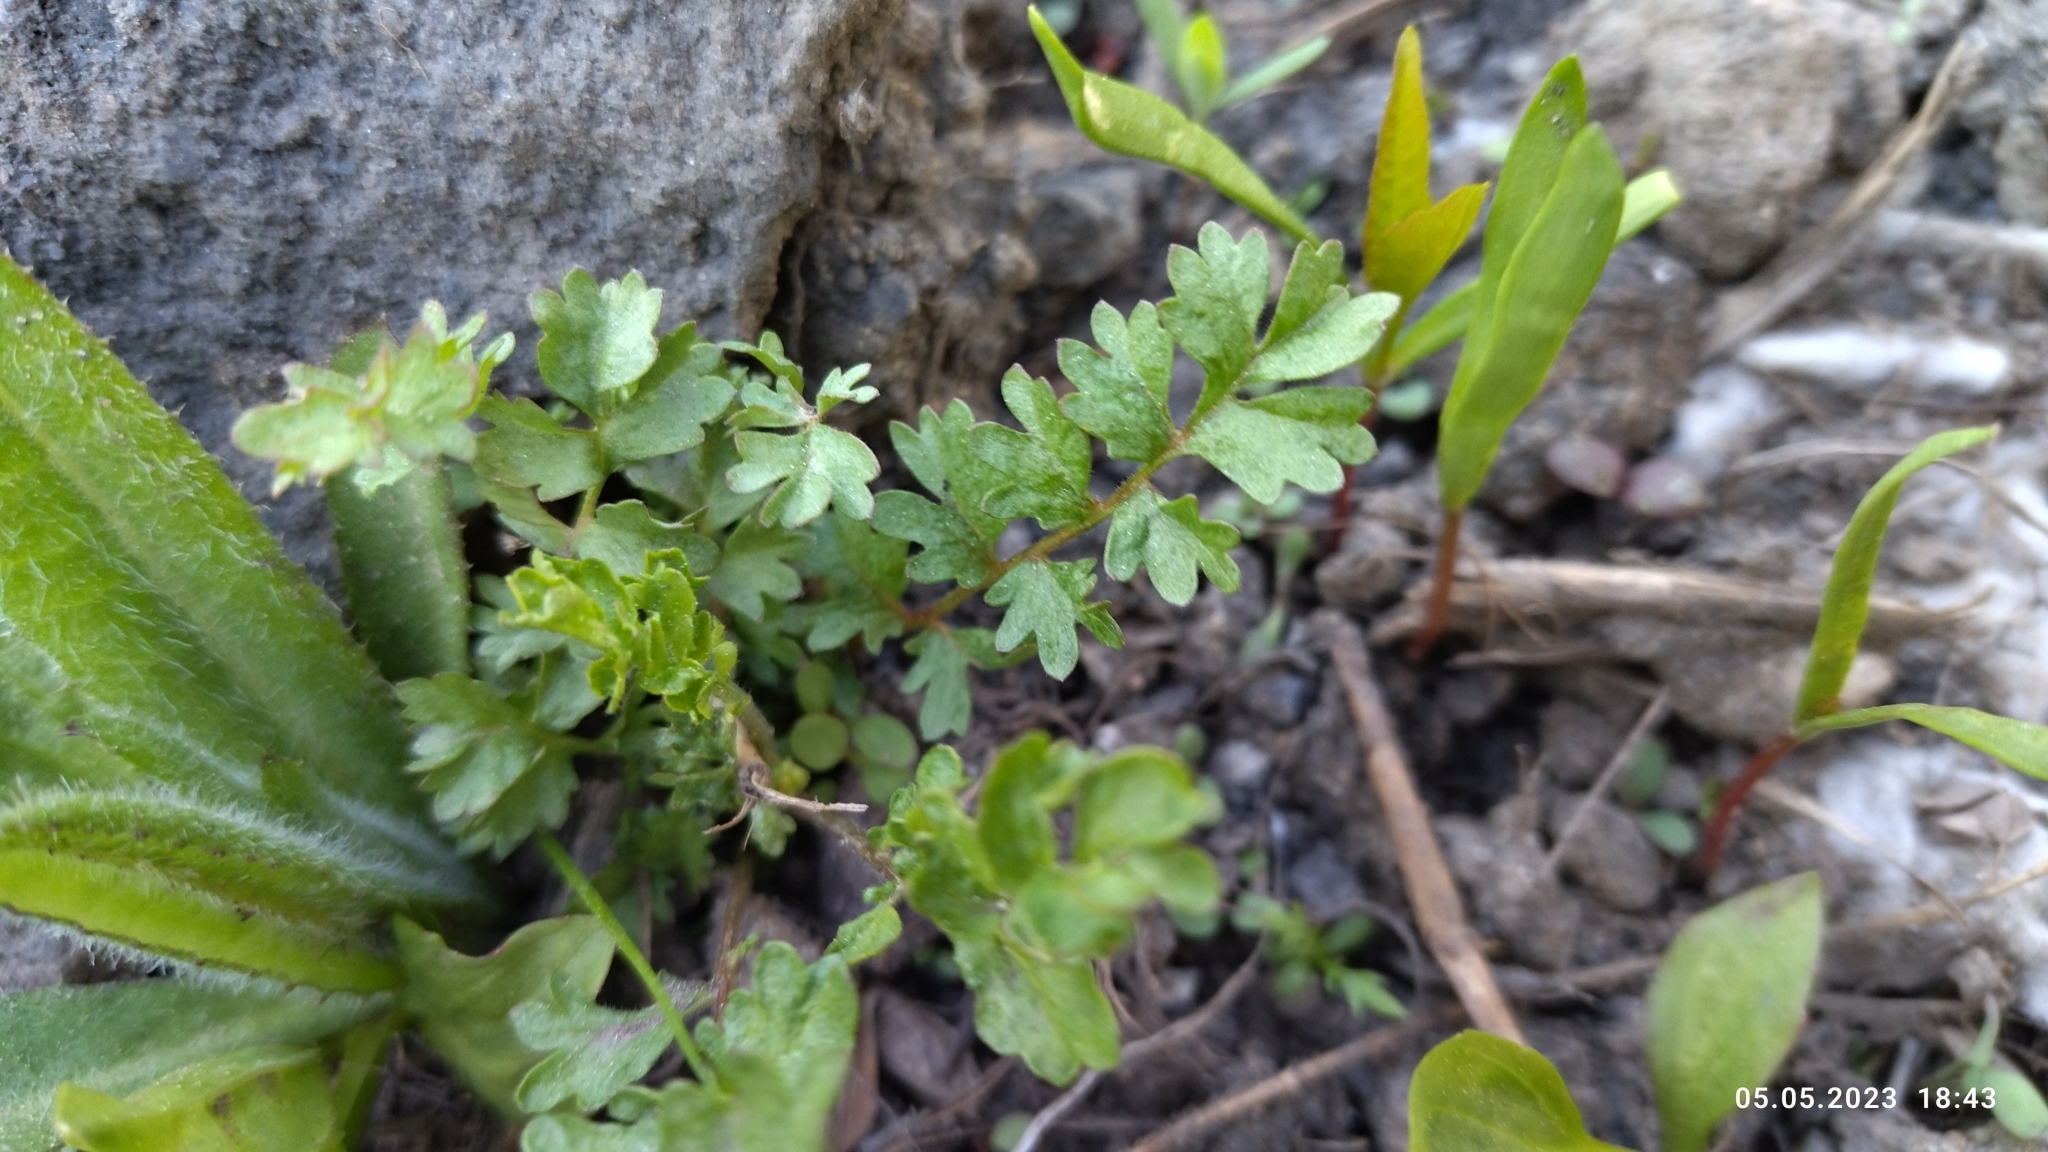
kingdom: Plantae
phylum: Tracheophyta
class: Magnoliopsida
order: Rosales
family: Rosaceae
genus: Potentilla
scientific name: Potentilla supina
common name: Prostrate cinquefoil
